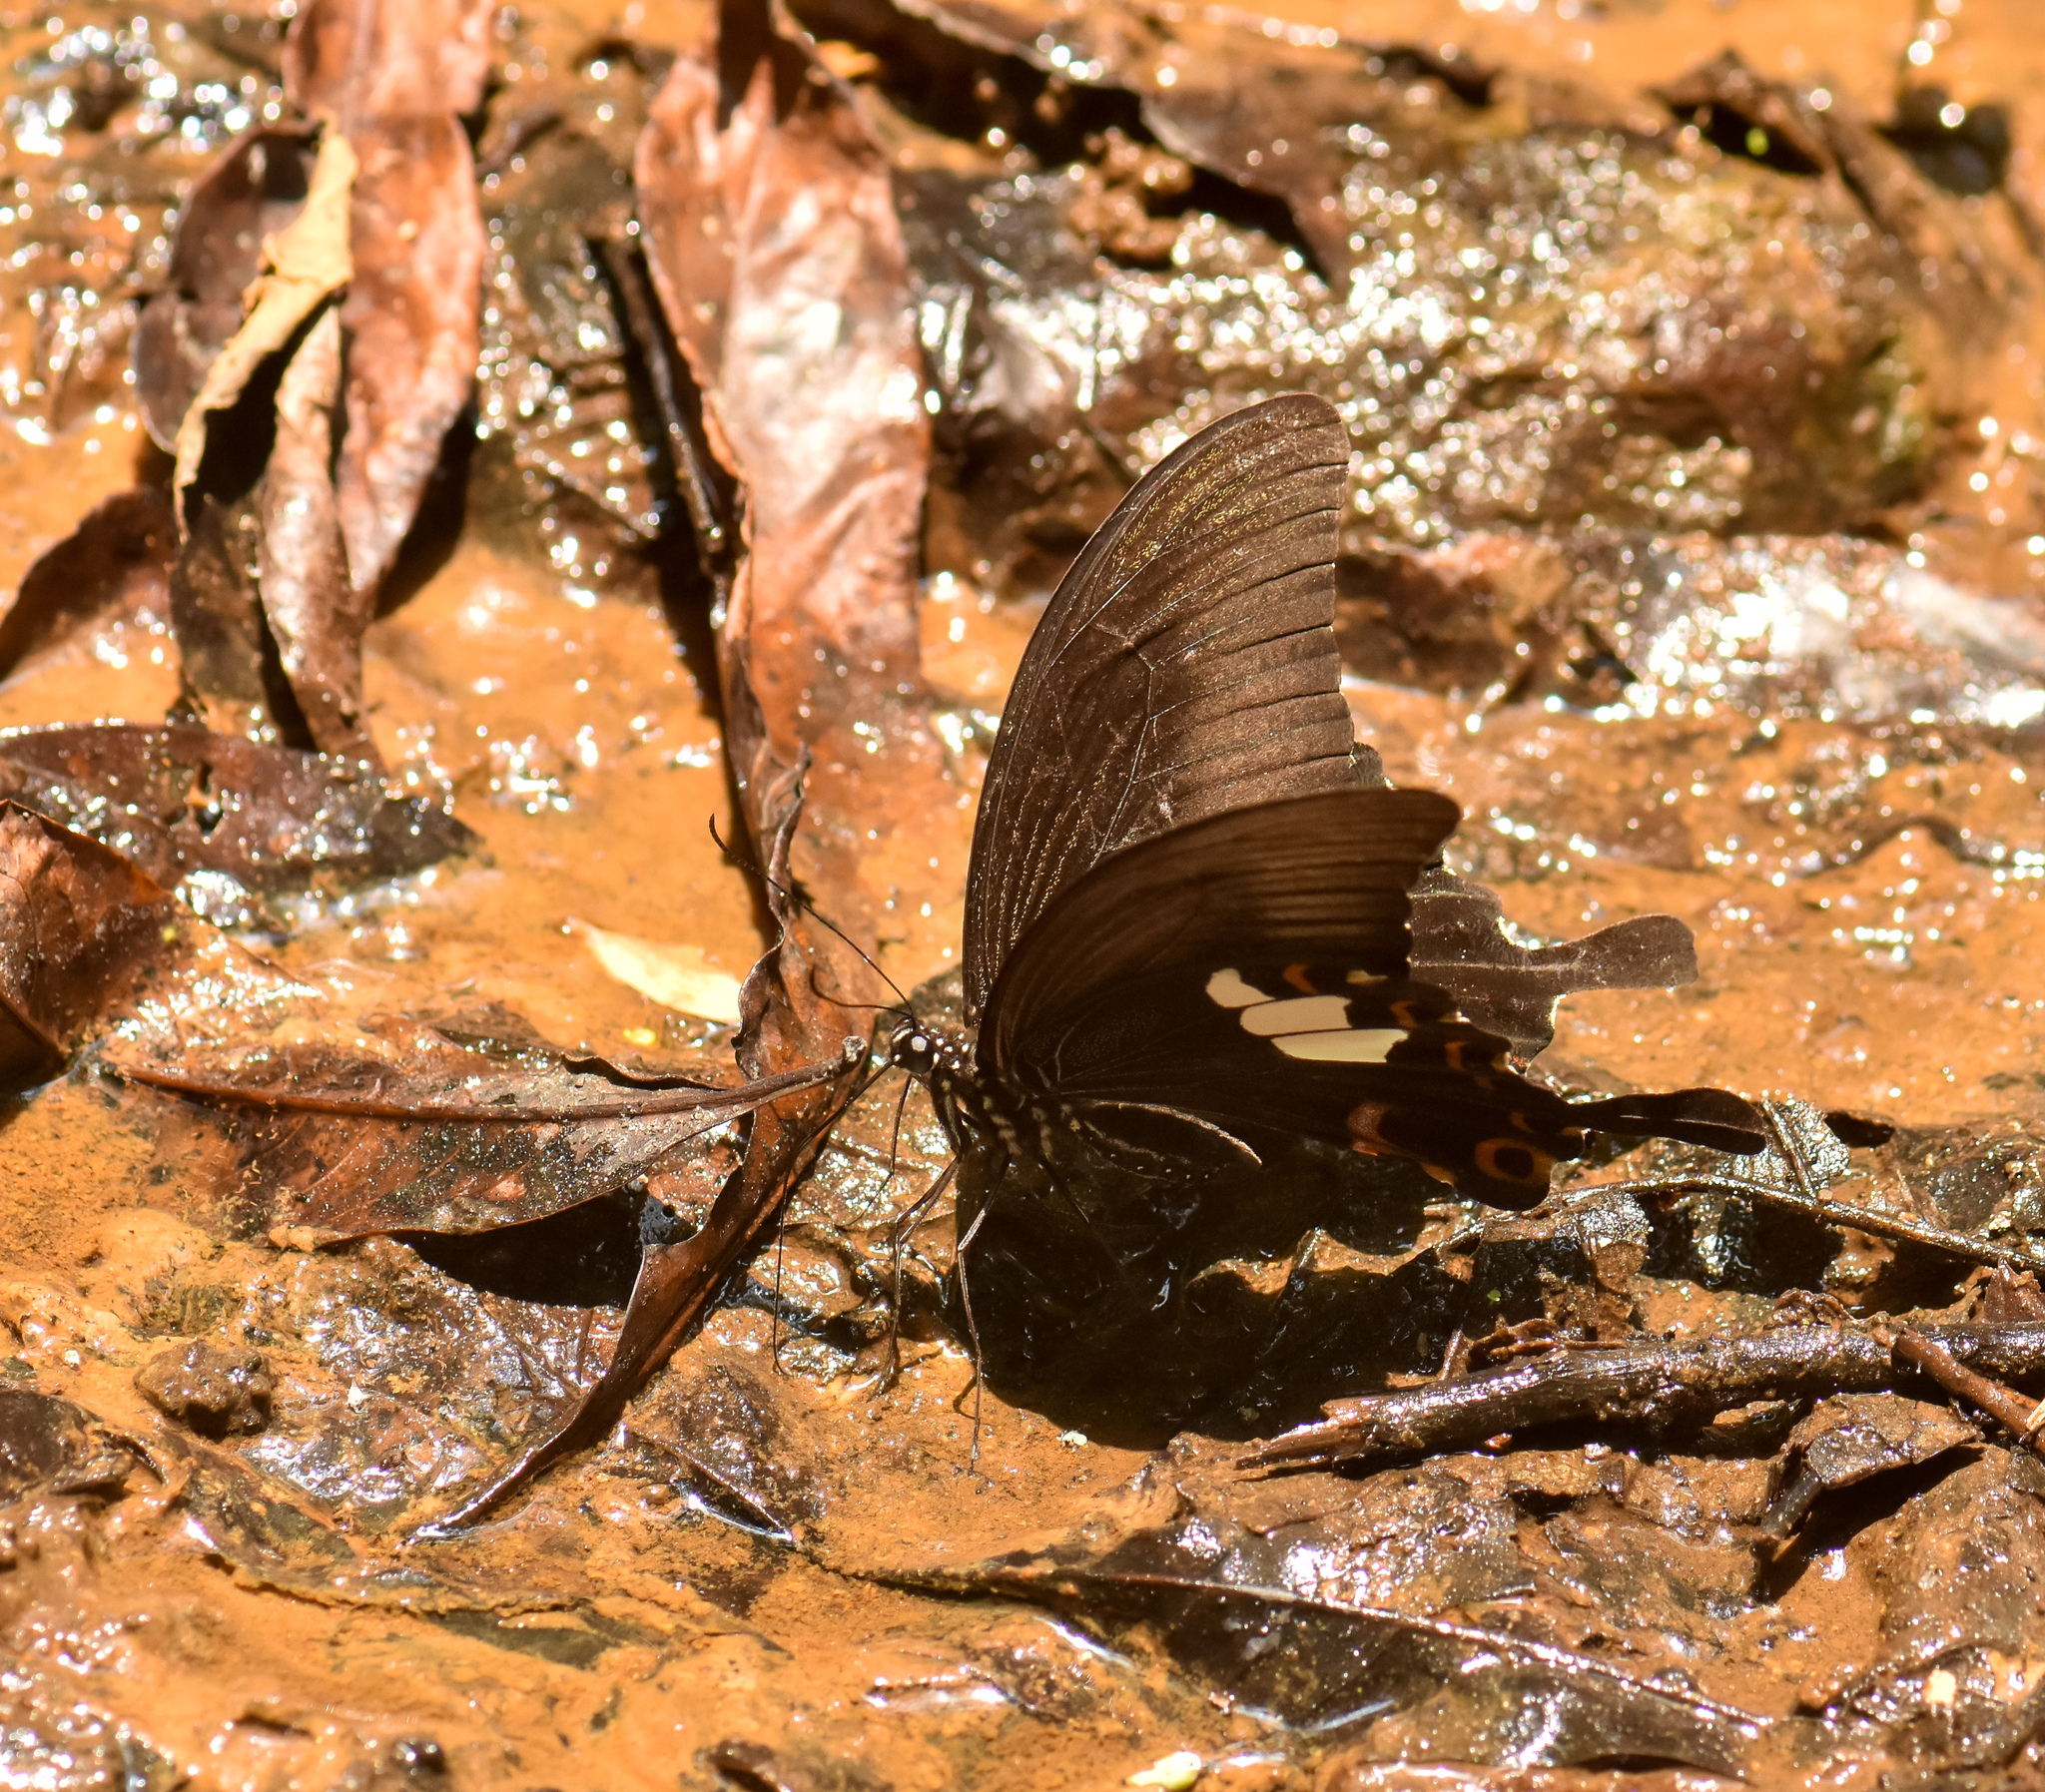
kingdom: Animalia
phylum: Arthropoda
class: Insecta
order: Lepidoptera
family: Papilionidae
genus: Papilio
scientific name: Papilio helenus
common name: Red helen
